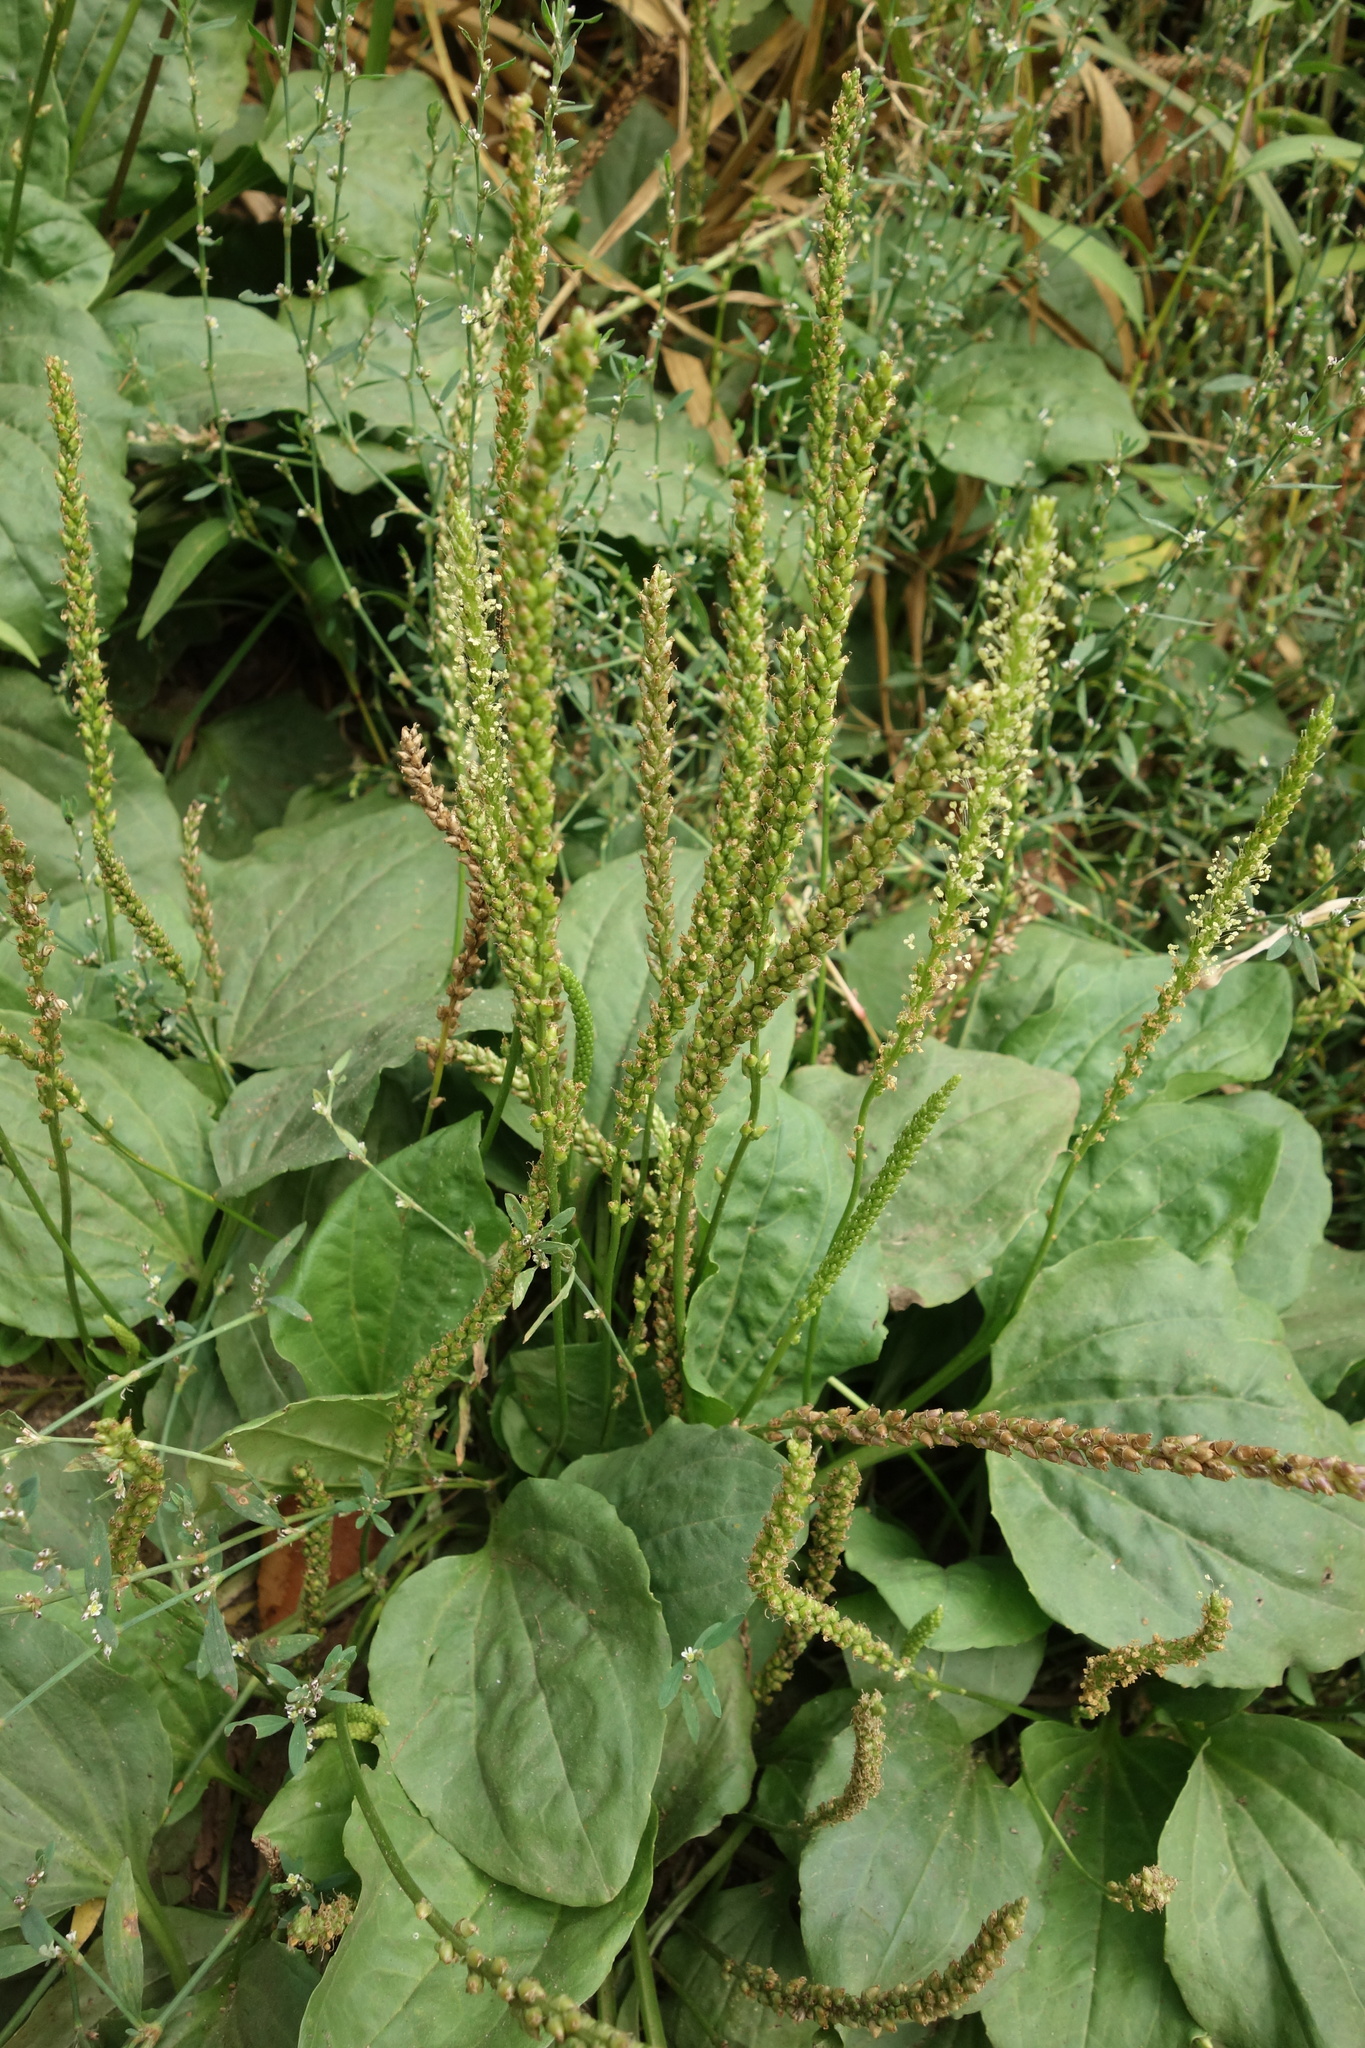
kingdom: Plantae
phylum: Tracheophyta
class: Magnoliopsida
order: Lamiales
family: Plantaginaceae
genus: Plantago
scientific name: Plantago major
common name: Common plantain
